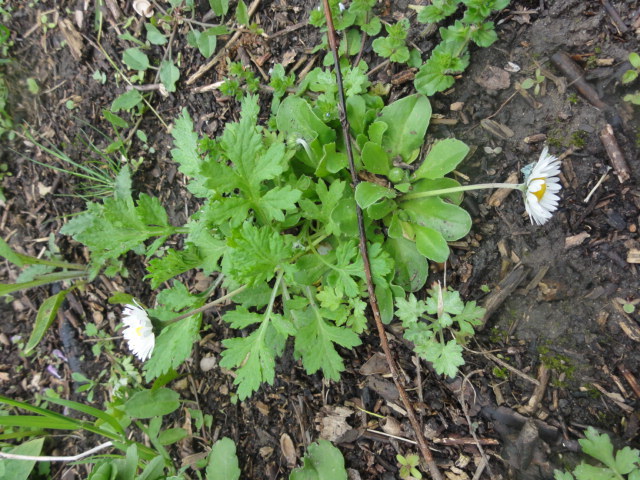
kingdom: Plantae
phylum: Tracheophyta
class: Magnoliopsida
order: Asterales
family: Asteraceae
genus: Bellis
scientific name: Bellis perennis
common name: Lawndaisy
